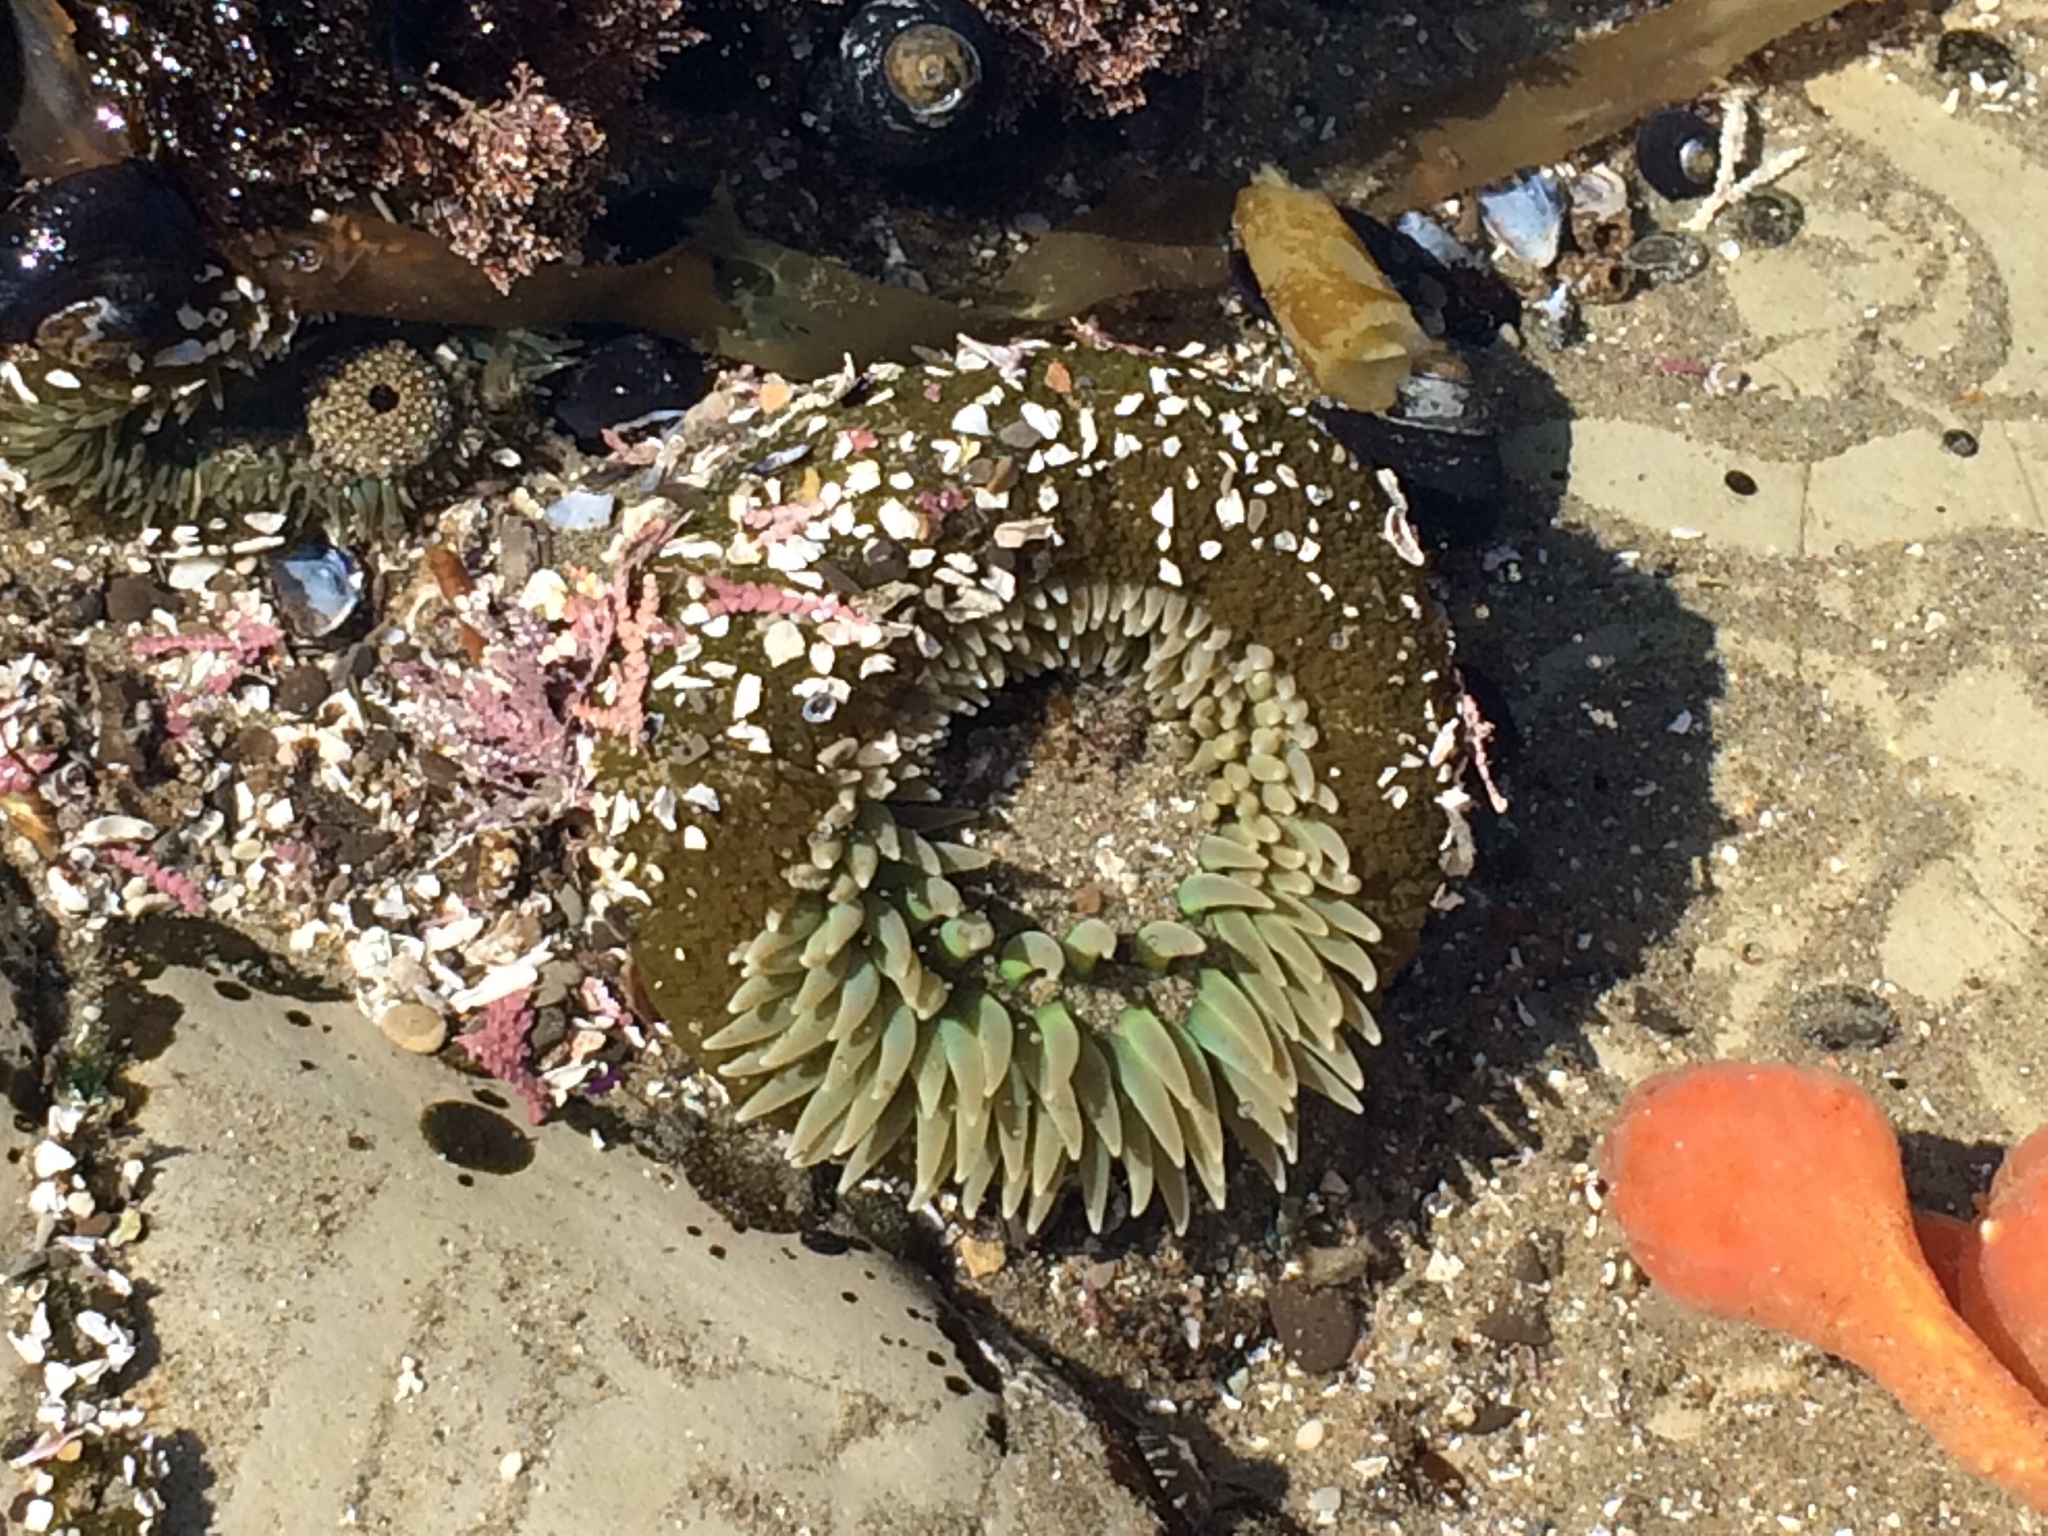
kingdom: Animalia
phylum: Cnidaria
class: Anthozoa
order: Actiniaria
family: Actiniidae
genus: Anthopleura
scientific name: Anthopleura xanthogrammica
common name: Giant green anemone
